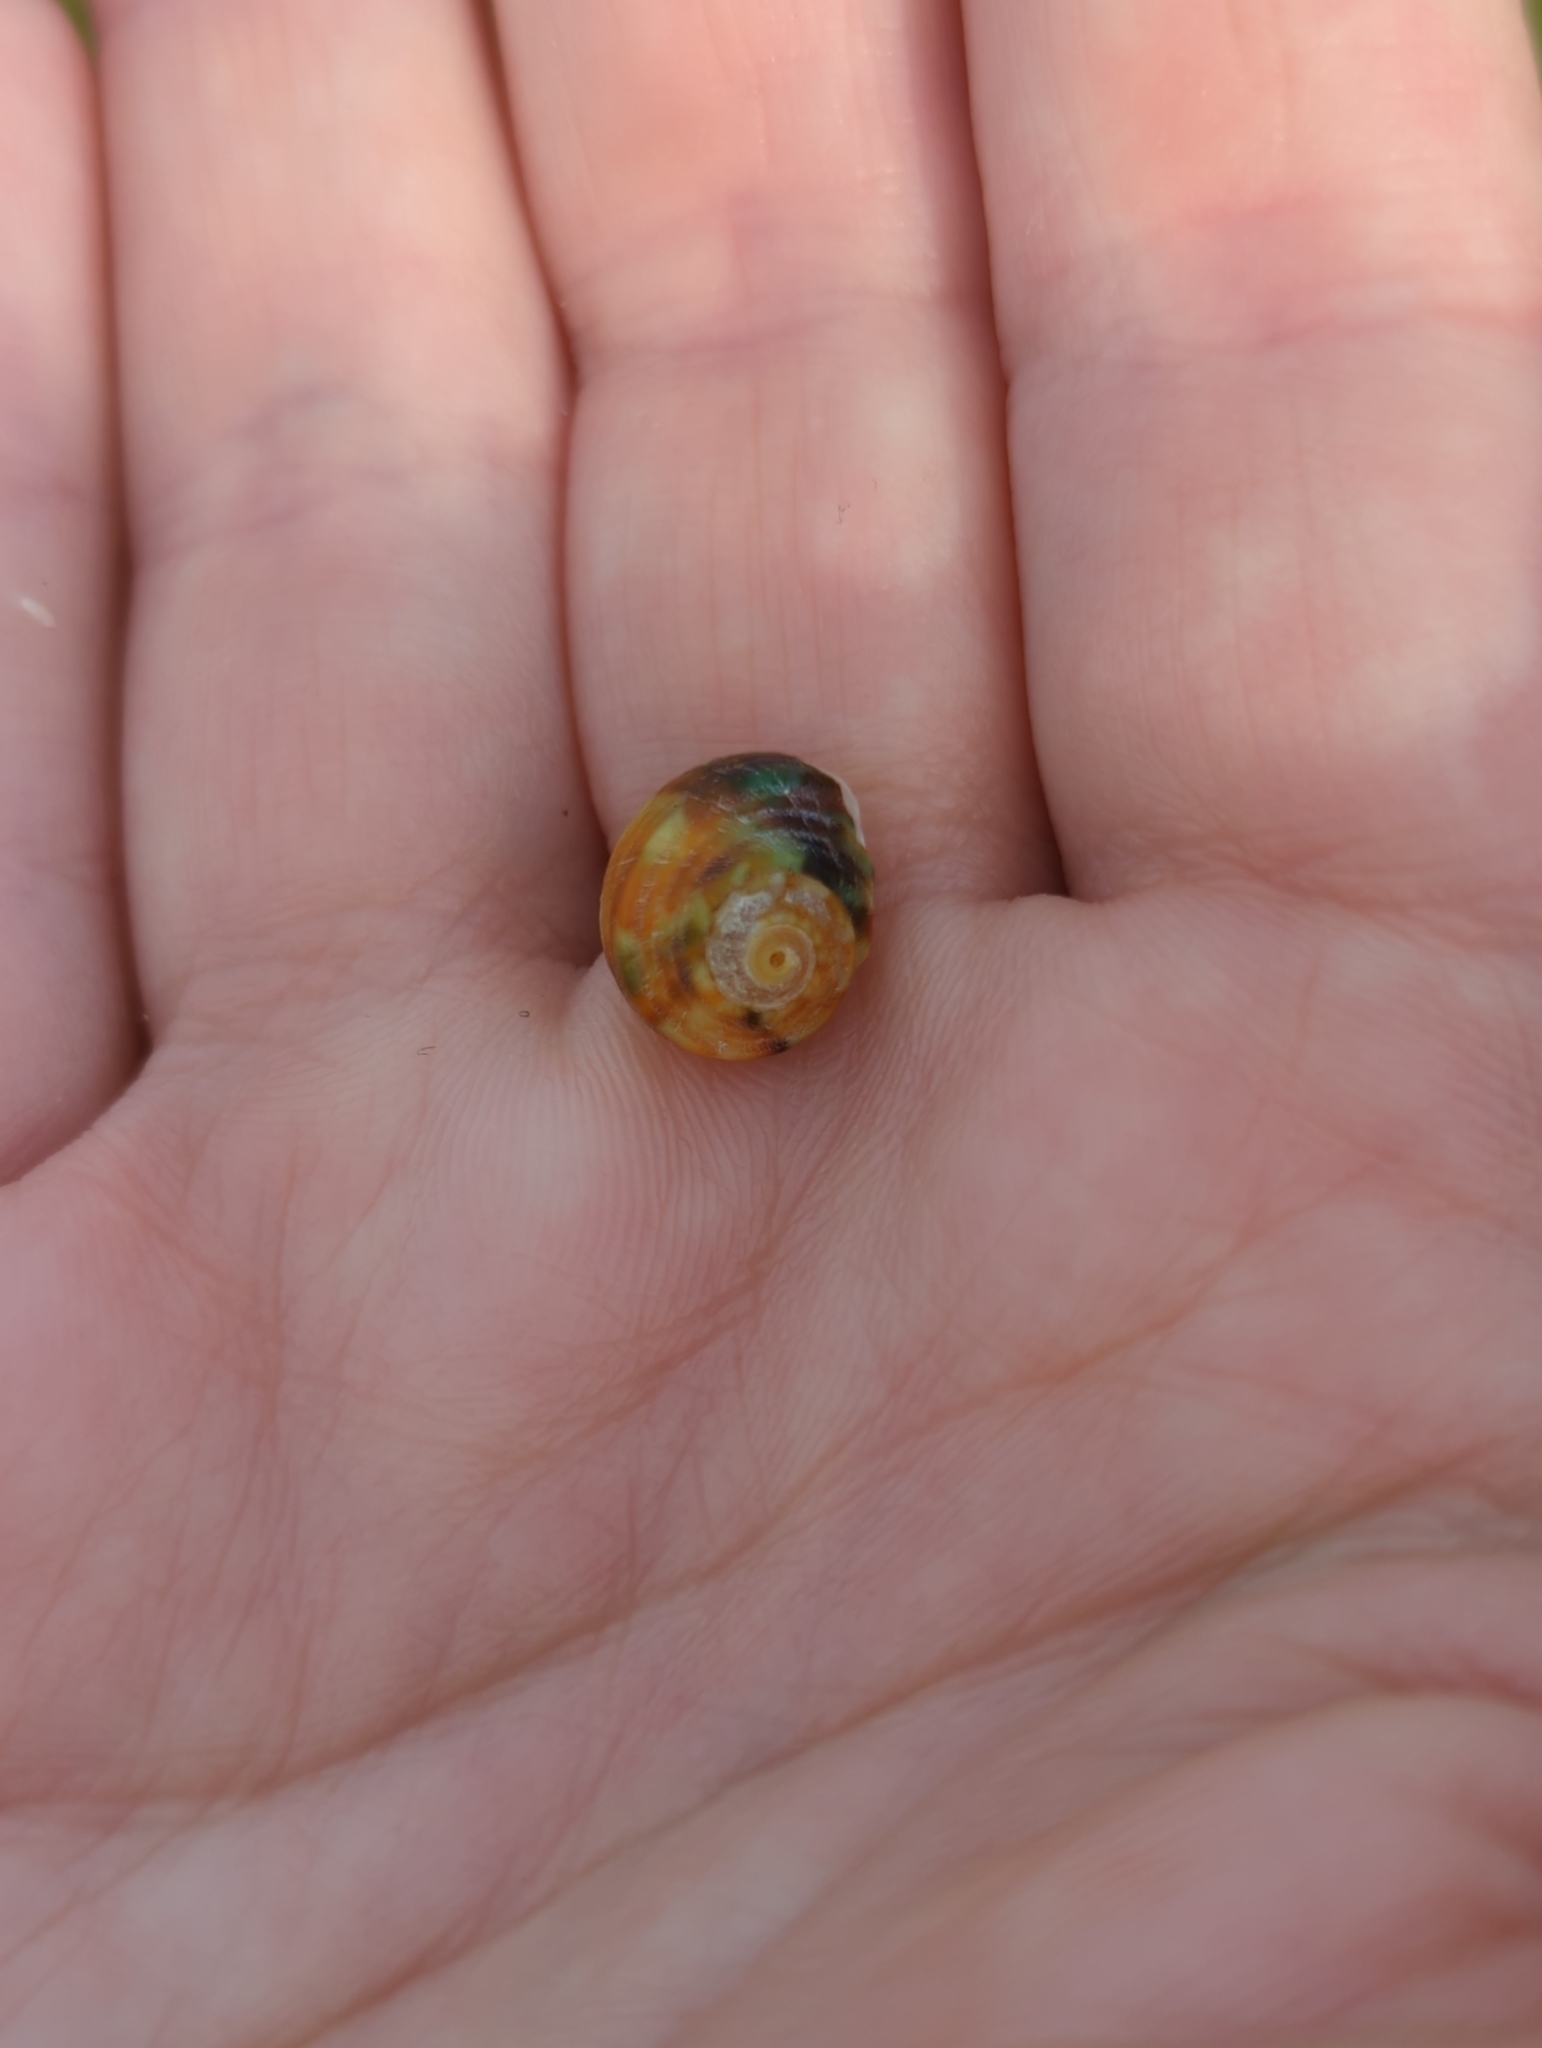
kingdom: Animalia
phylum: Mollusca
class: Gastropoda
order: Trochida
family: Turbinidae
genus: Lunella
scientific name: Lunella undulata
